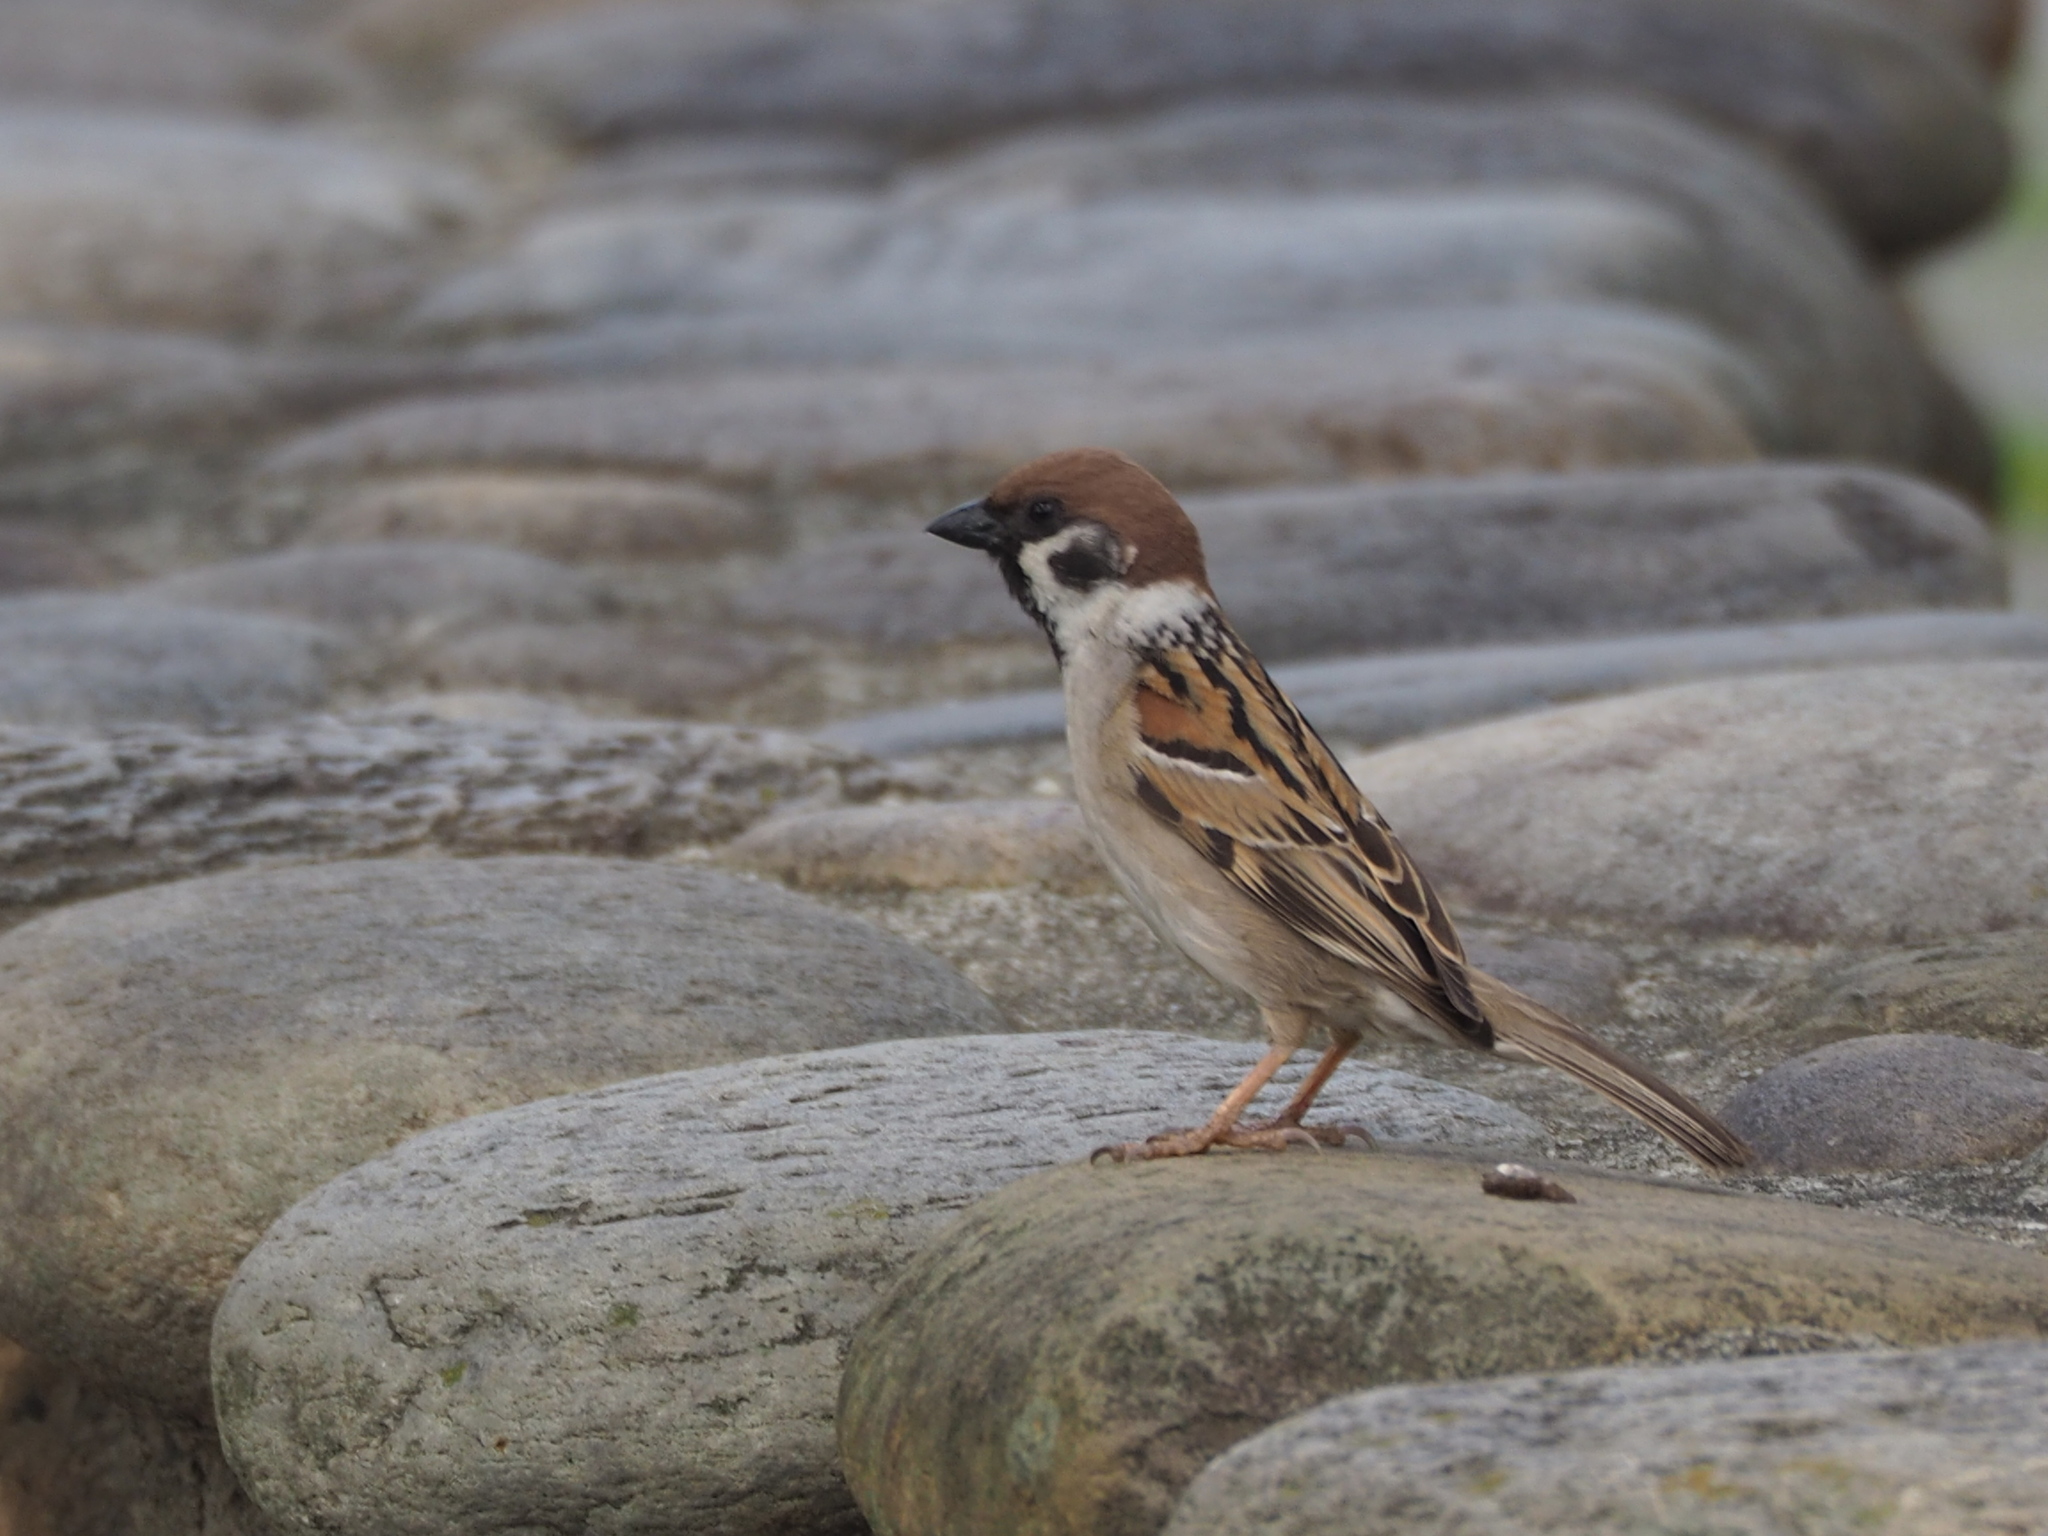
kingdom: Animalia
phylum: Chordata
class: Aves
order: Passeriformes
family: Passeridae
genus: Passer
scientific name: Passer montanus
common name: Eurasian tree sparrow
